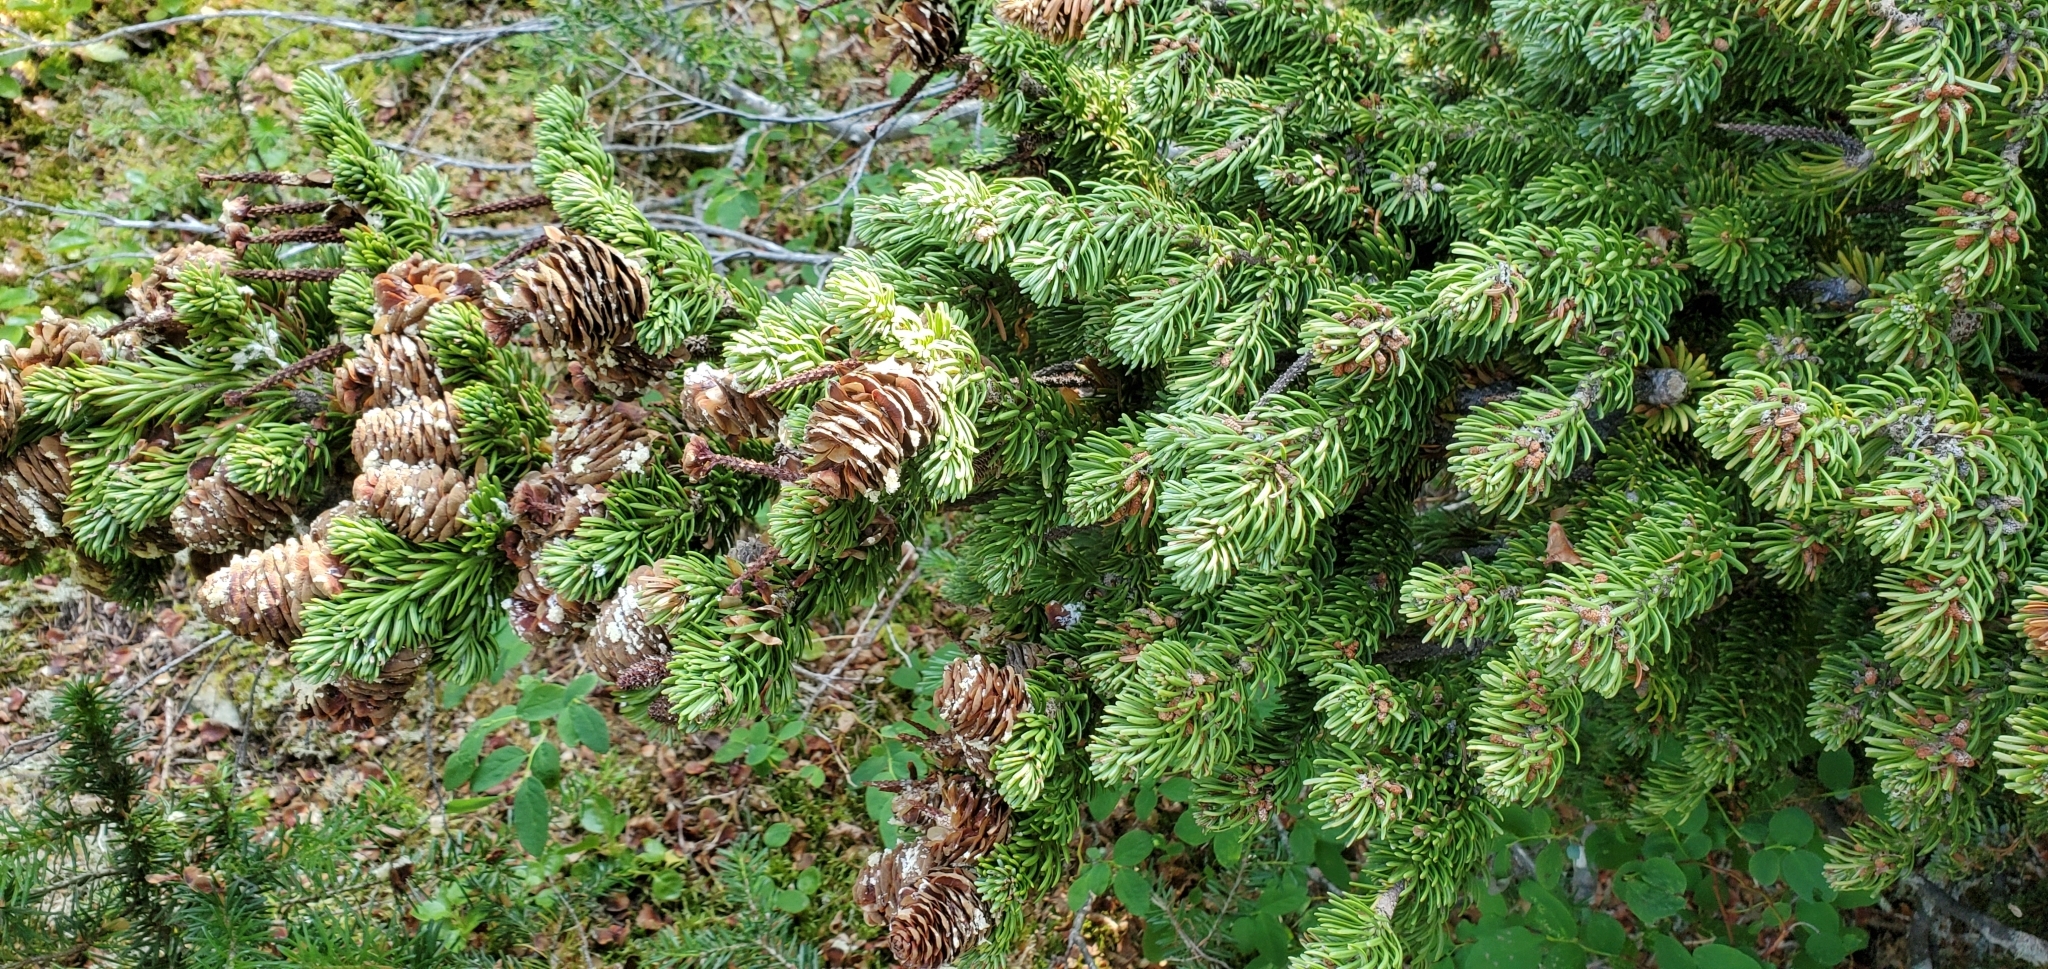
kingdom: Plantae
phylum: Tracheophyta
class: Pinopsida
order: Pinales
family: Pinaceae
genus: Abies
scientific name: Abies lasiocarpa
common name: Subalpine fir
